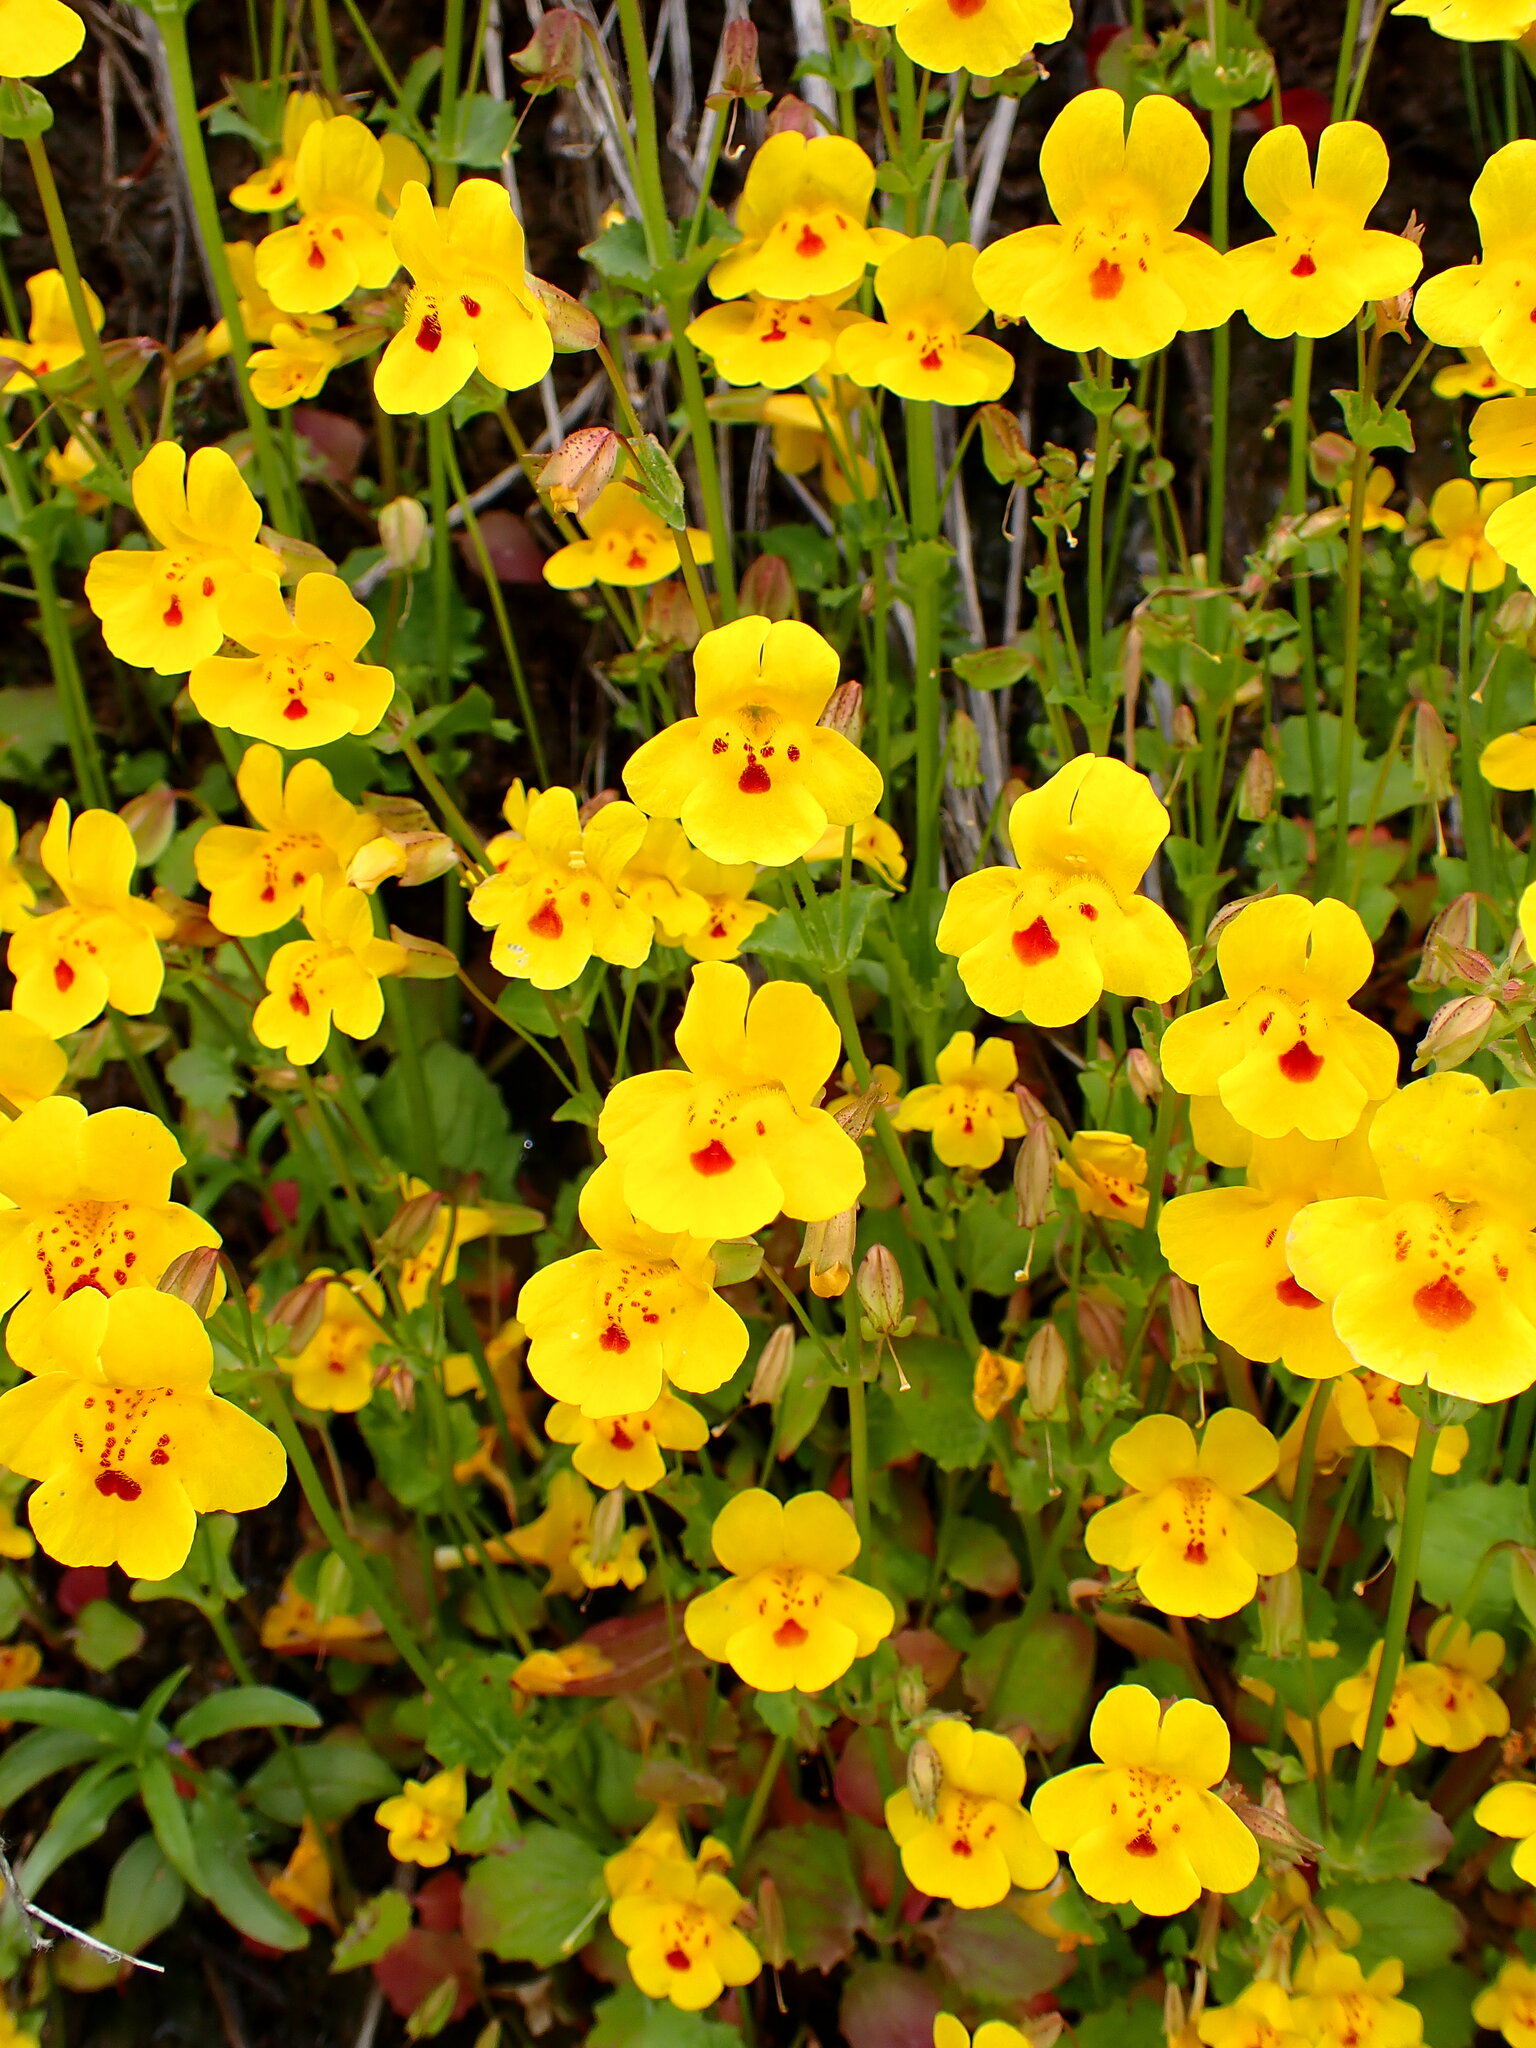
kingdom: Plantae
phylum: Tracheophyta
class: Magnoliopsida
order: Lamiales
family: Phrymaceae
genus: Erythranthe
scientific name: Erythranthe microphylla
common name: Bentham's monkeyflower
